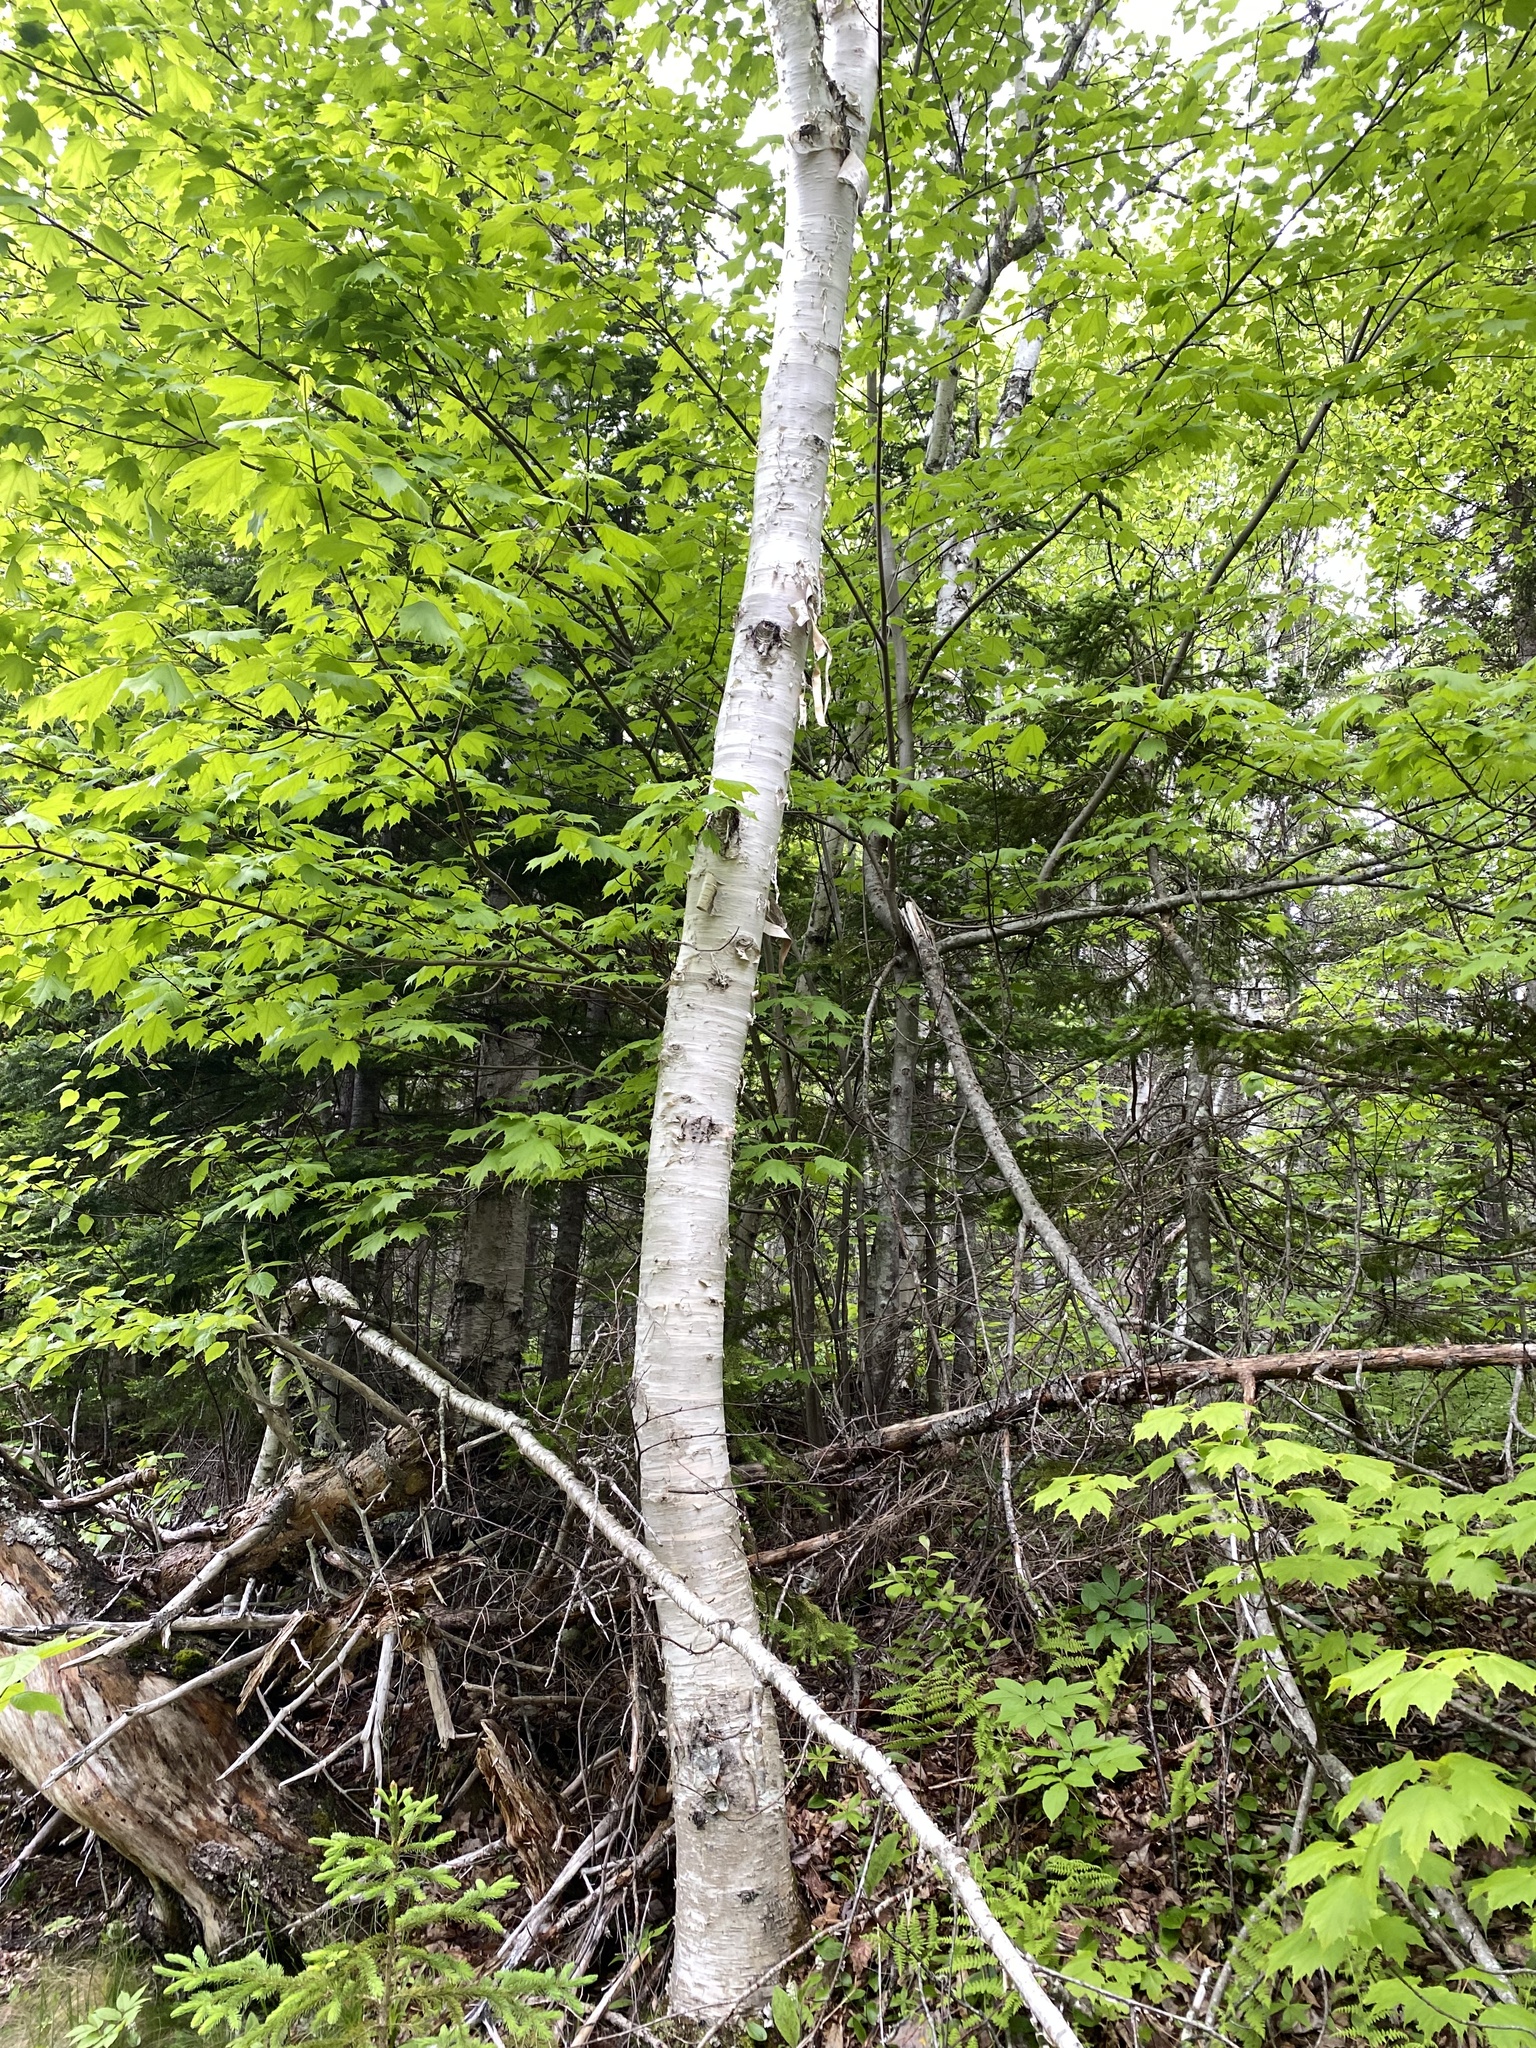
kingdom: Plantae
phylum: Tracheophyta
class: Magnoliopsida
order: Fagales
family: Betulaceae
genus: Betula
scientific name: Betula papyrifera
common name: Paper birch
